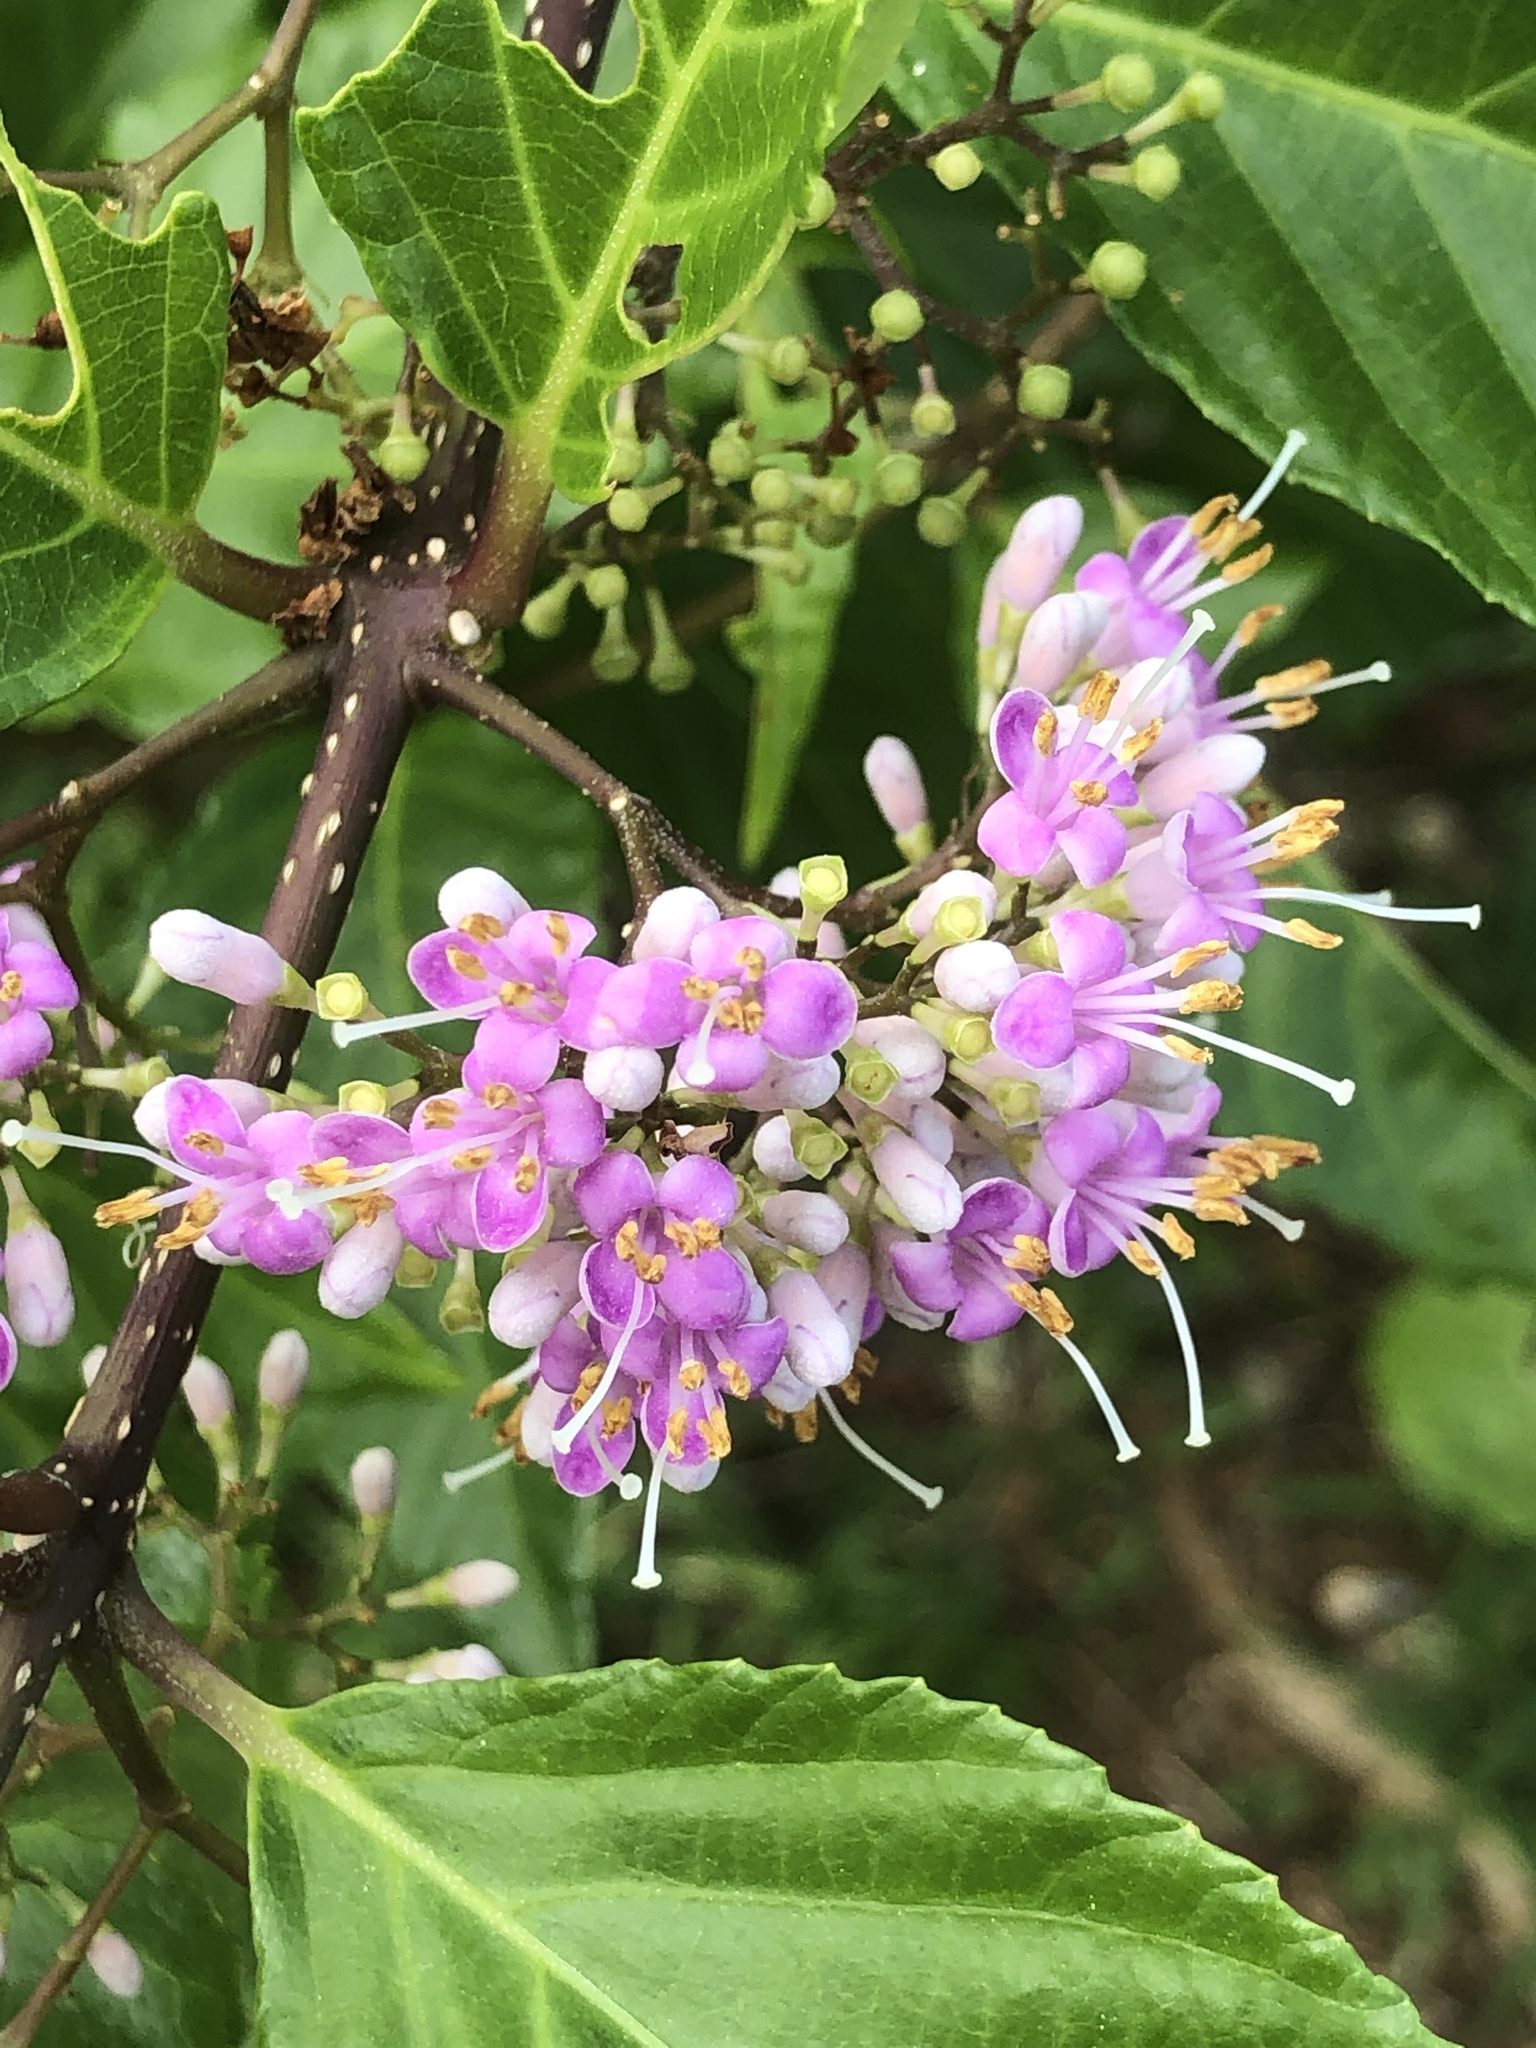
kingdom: Plantae
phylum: Tracheophyta
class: Magnoliopsida
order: Lamiales
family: Lamiaceae
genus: Callicarpa
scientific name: Callicarpa japonica
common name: Japanese beauty-berry
